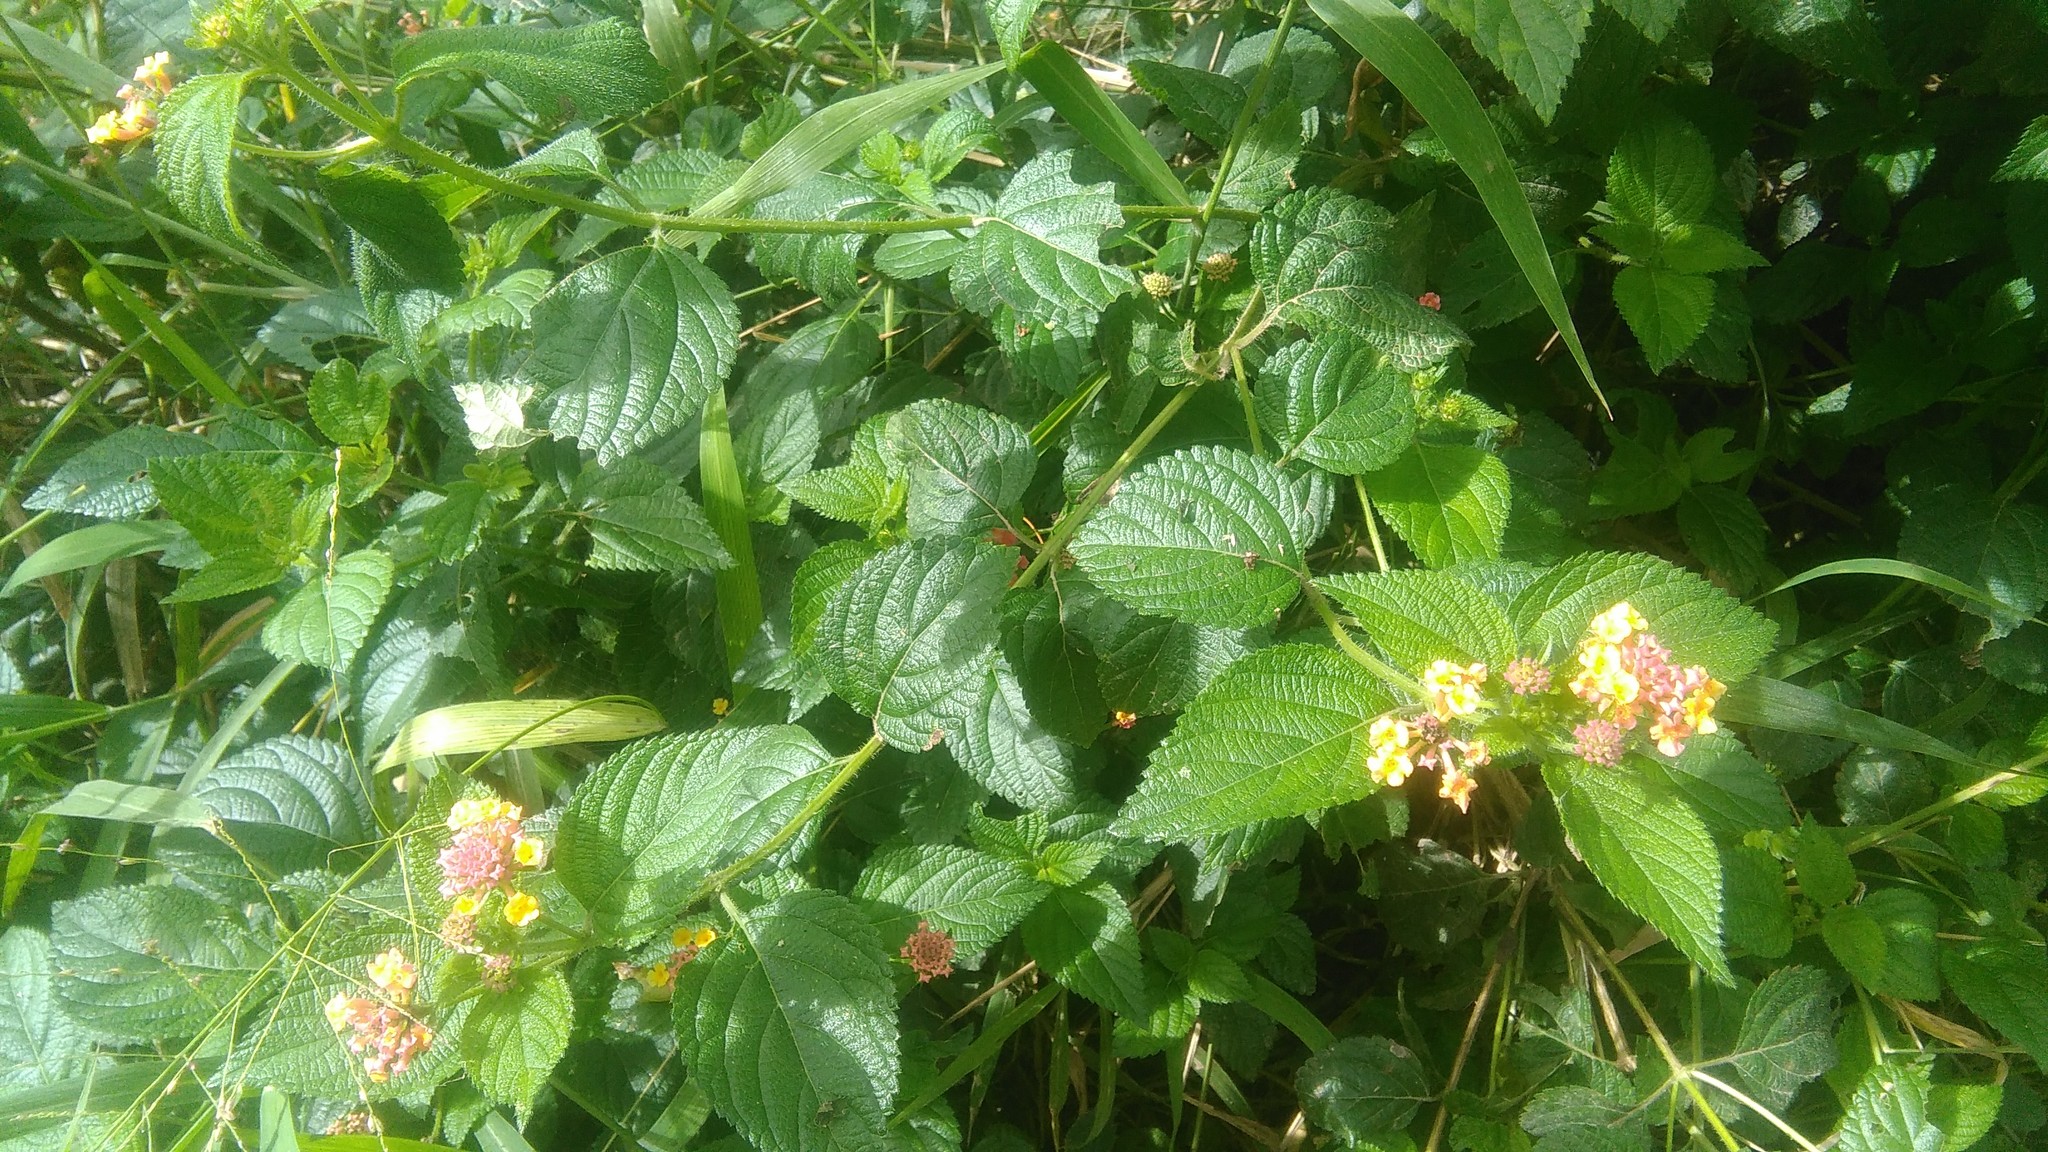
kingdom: Plantae
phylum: Tracheophyta
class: Magnoliopsida
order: Lamiales
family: Verbenaceae
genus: Lantana
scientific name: Lantana camara
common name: Lantana
